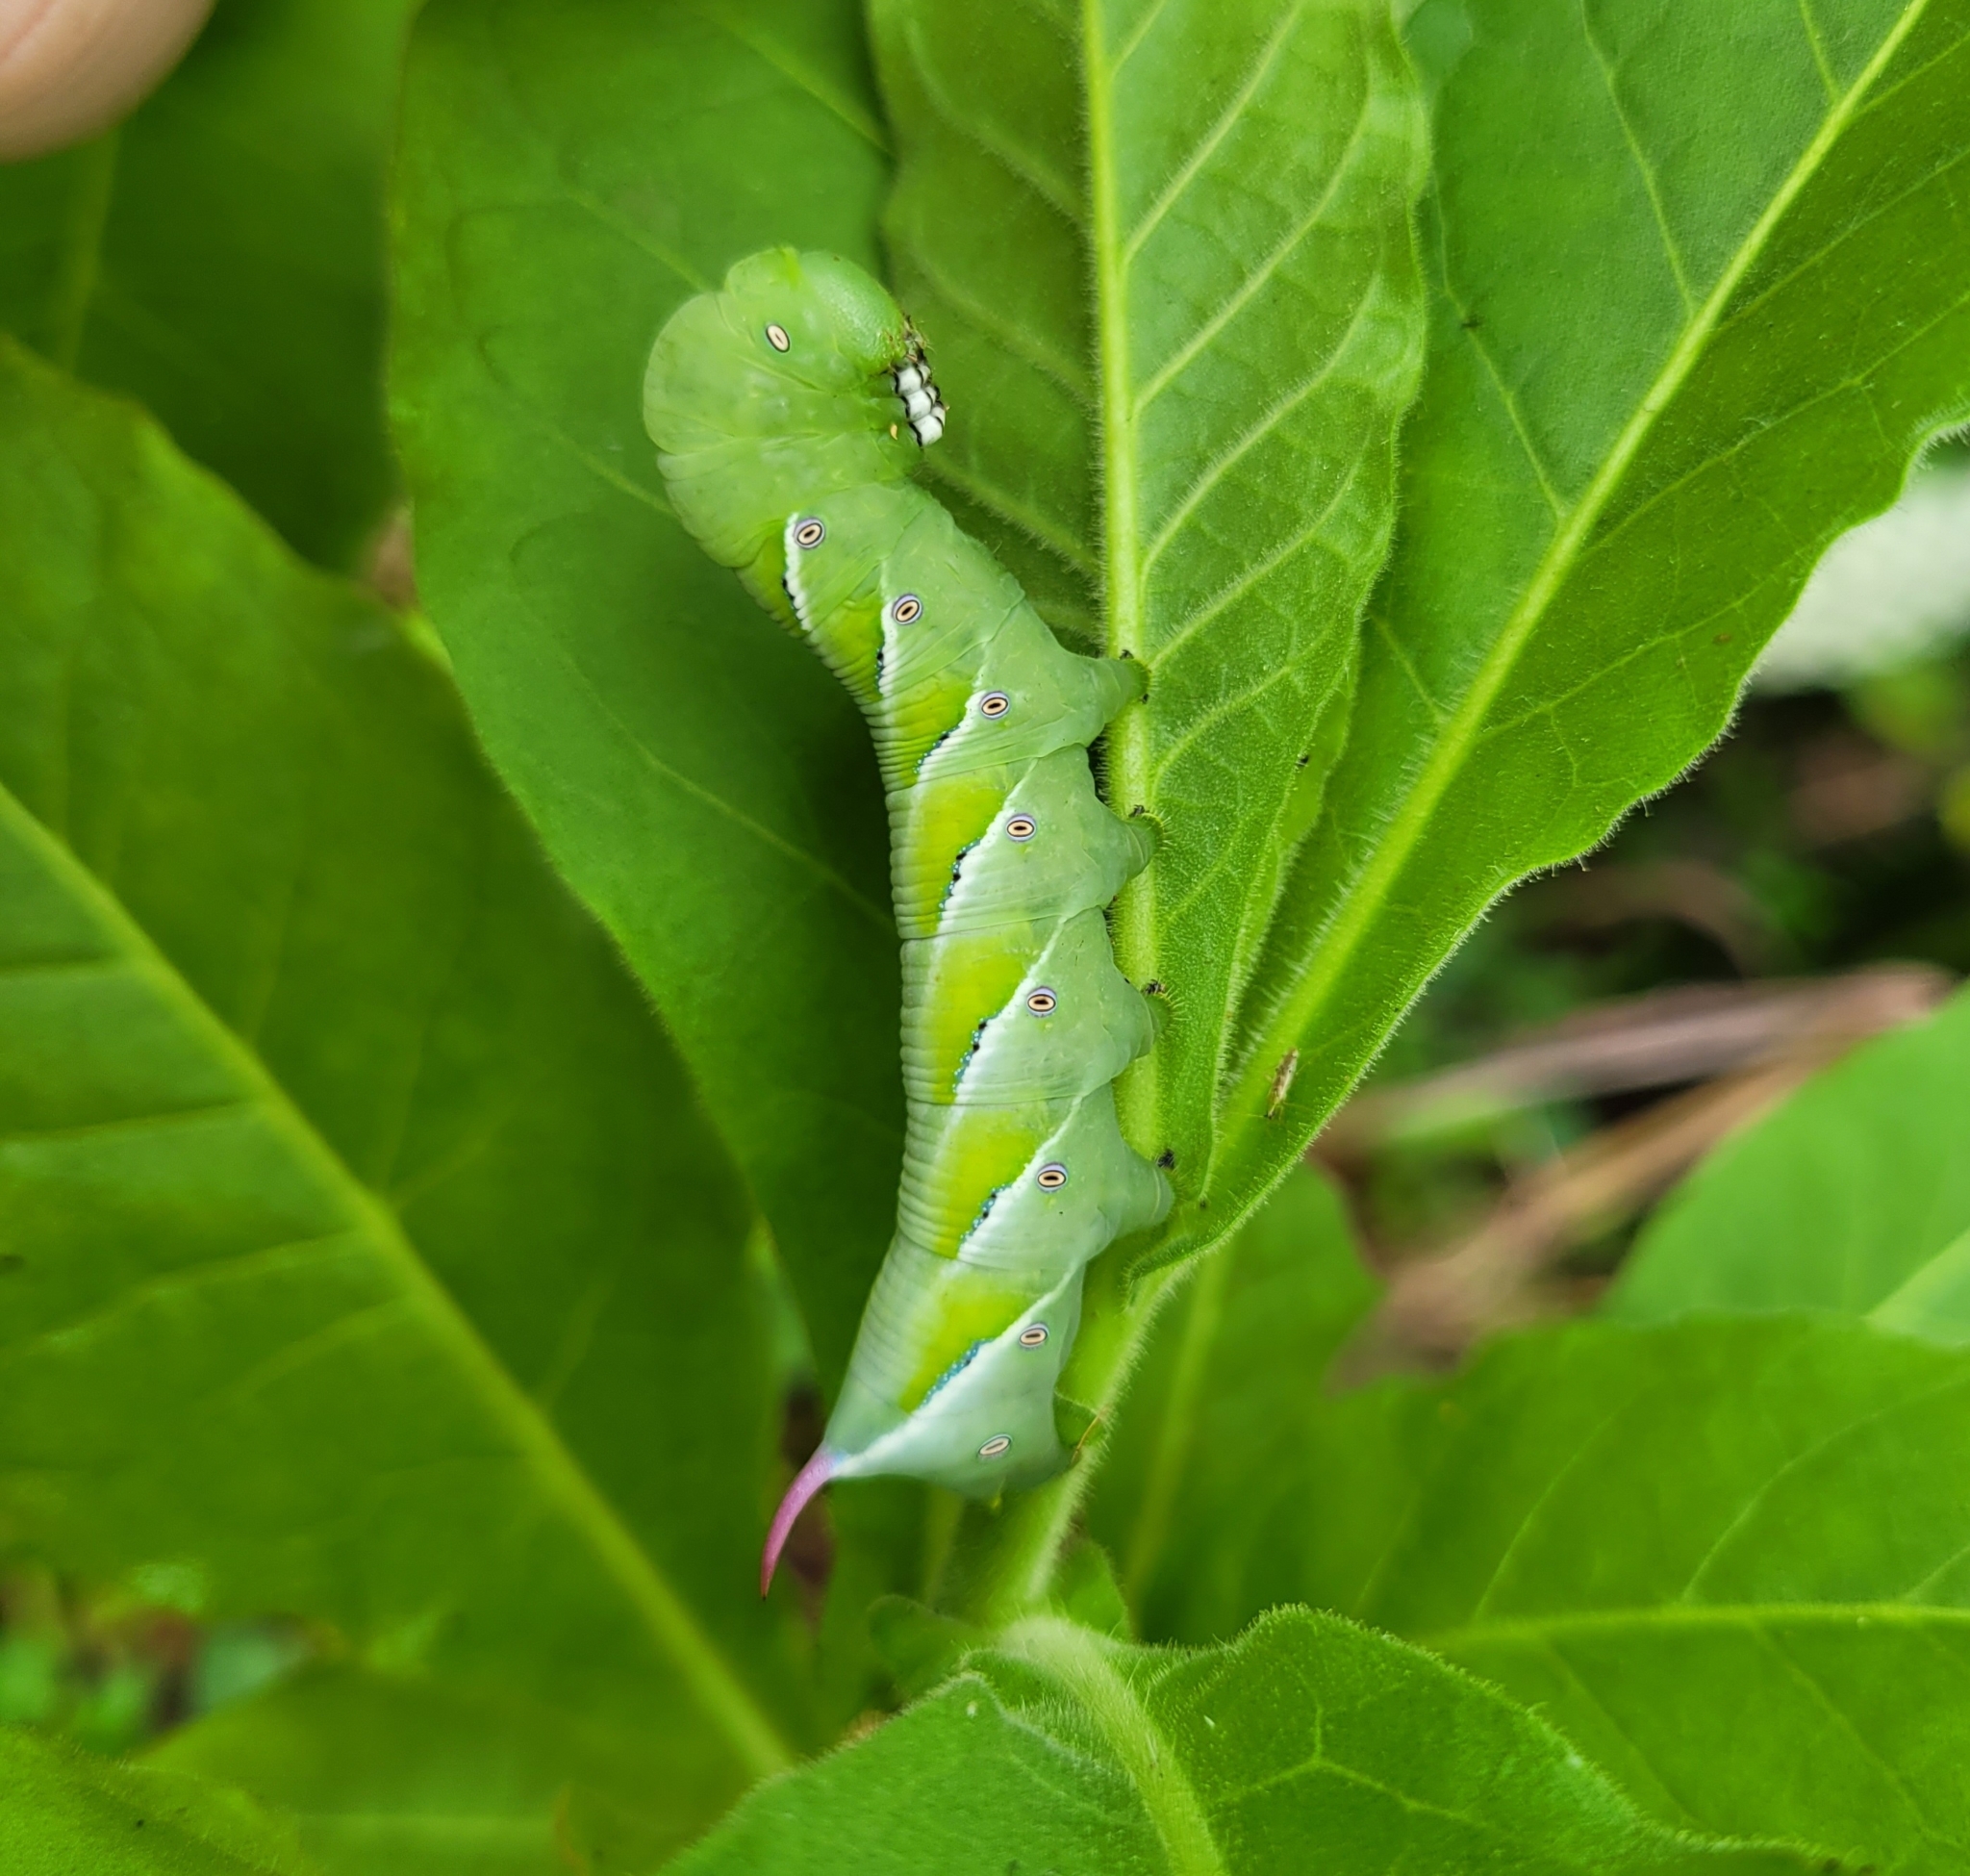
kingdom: Animalia
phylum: Arthropoda
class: Insecta
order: Lepidoptera
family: Sphingidae
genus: Manduca
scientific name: Manduca sexta
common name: Carolina sphinx
